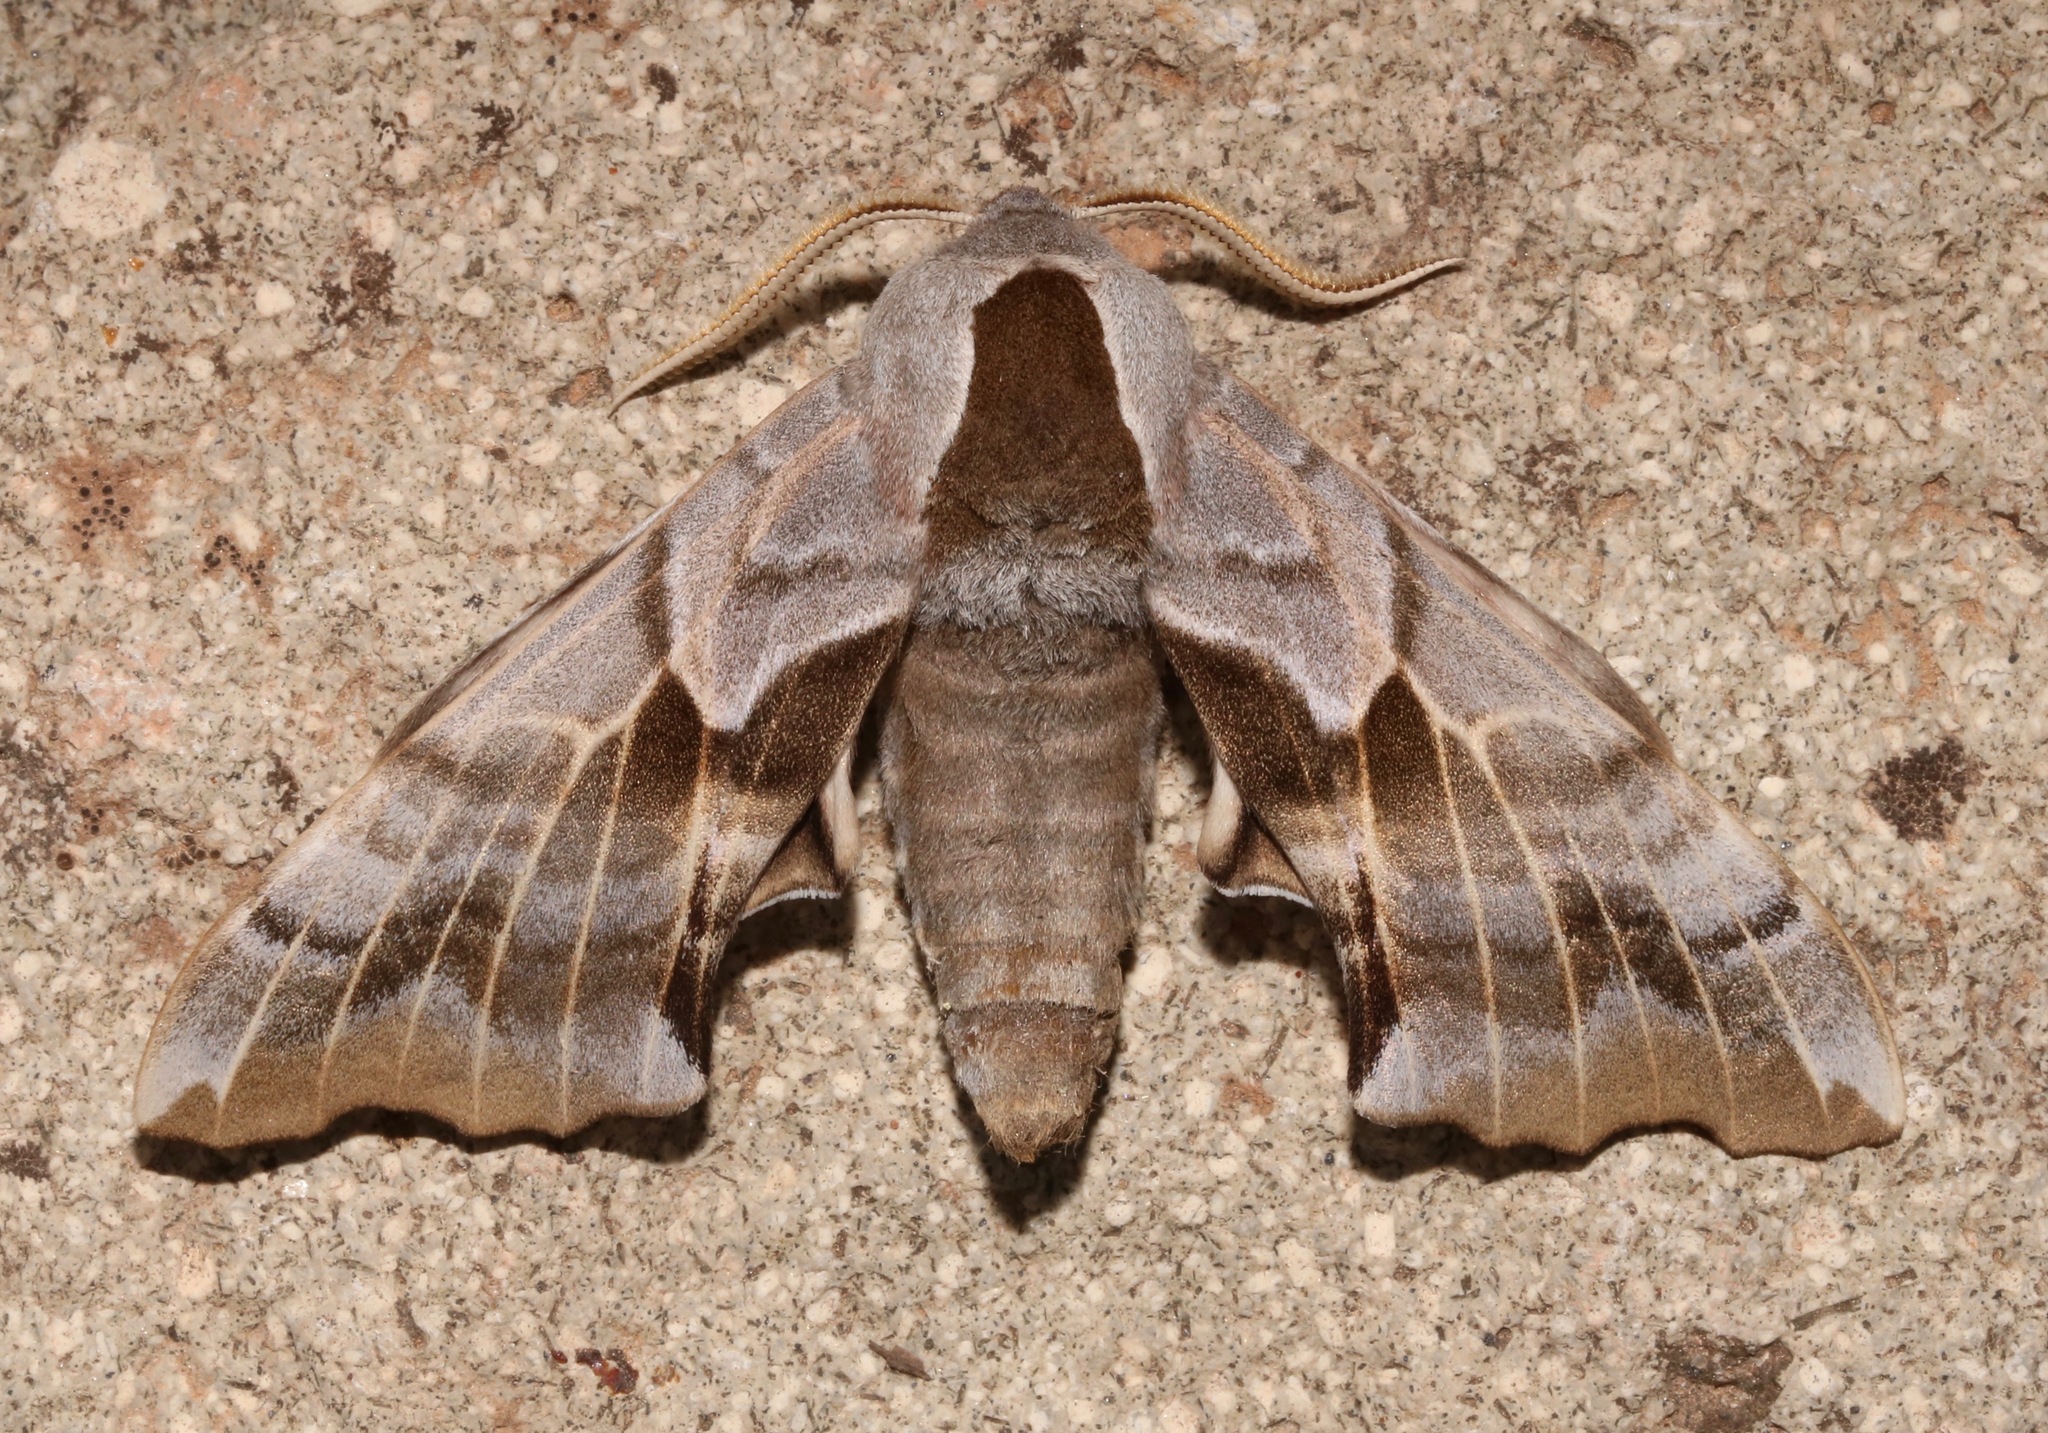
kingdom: Animalia
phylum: Arthropoda
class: Insecta
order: Lepidoptera
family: Sphingidae
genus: Smerinthus
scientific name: Smerinthus cerisyi
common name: Cerisy's sphinx moth
